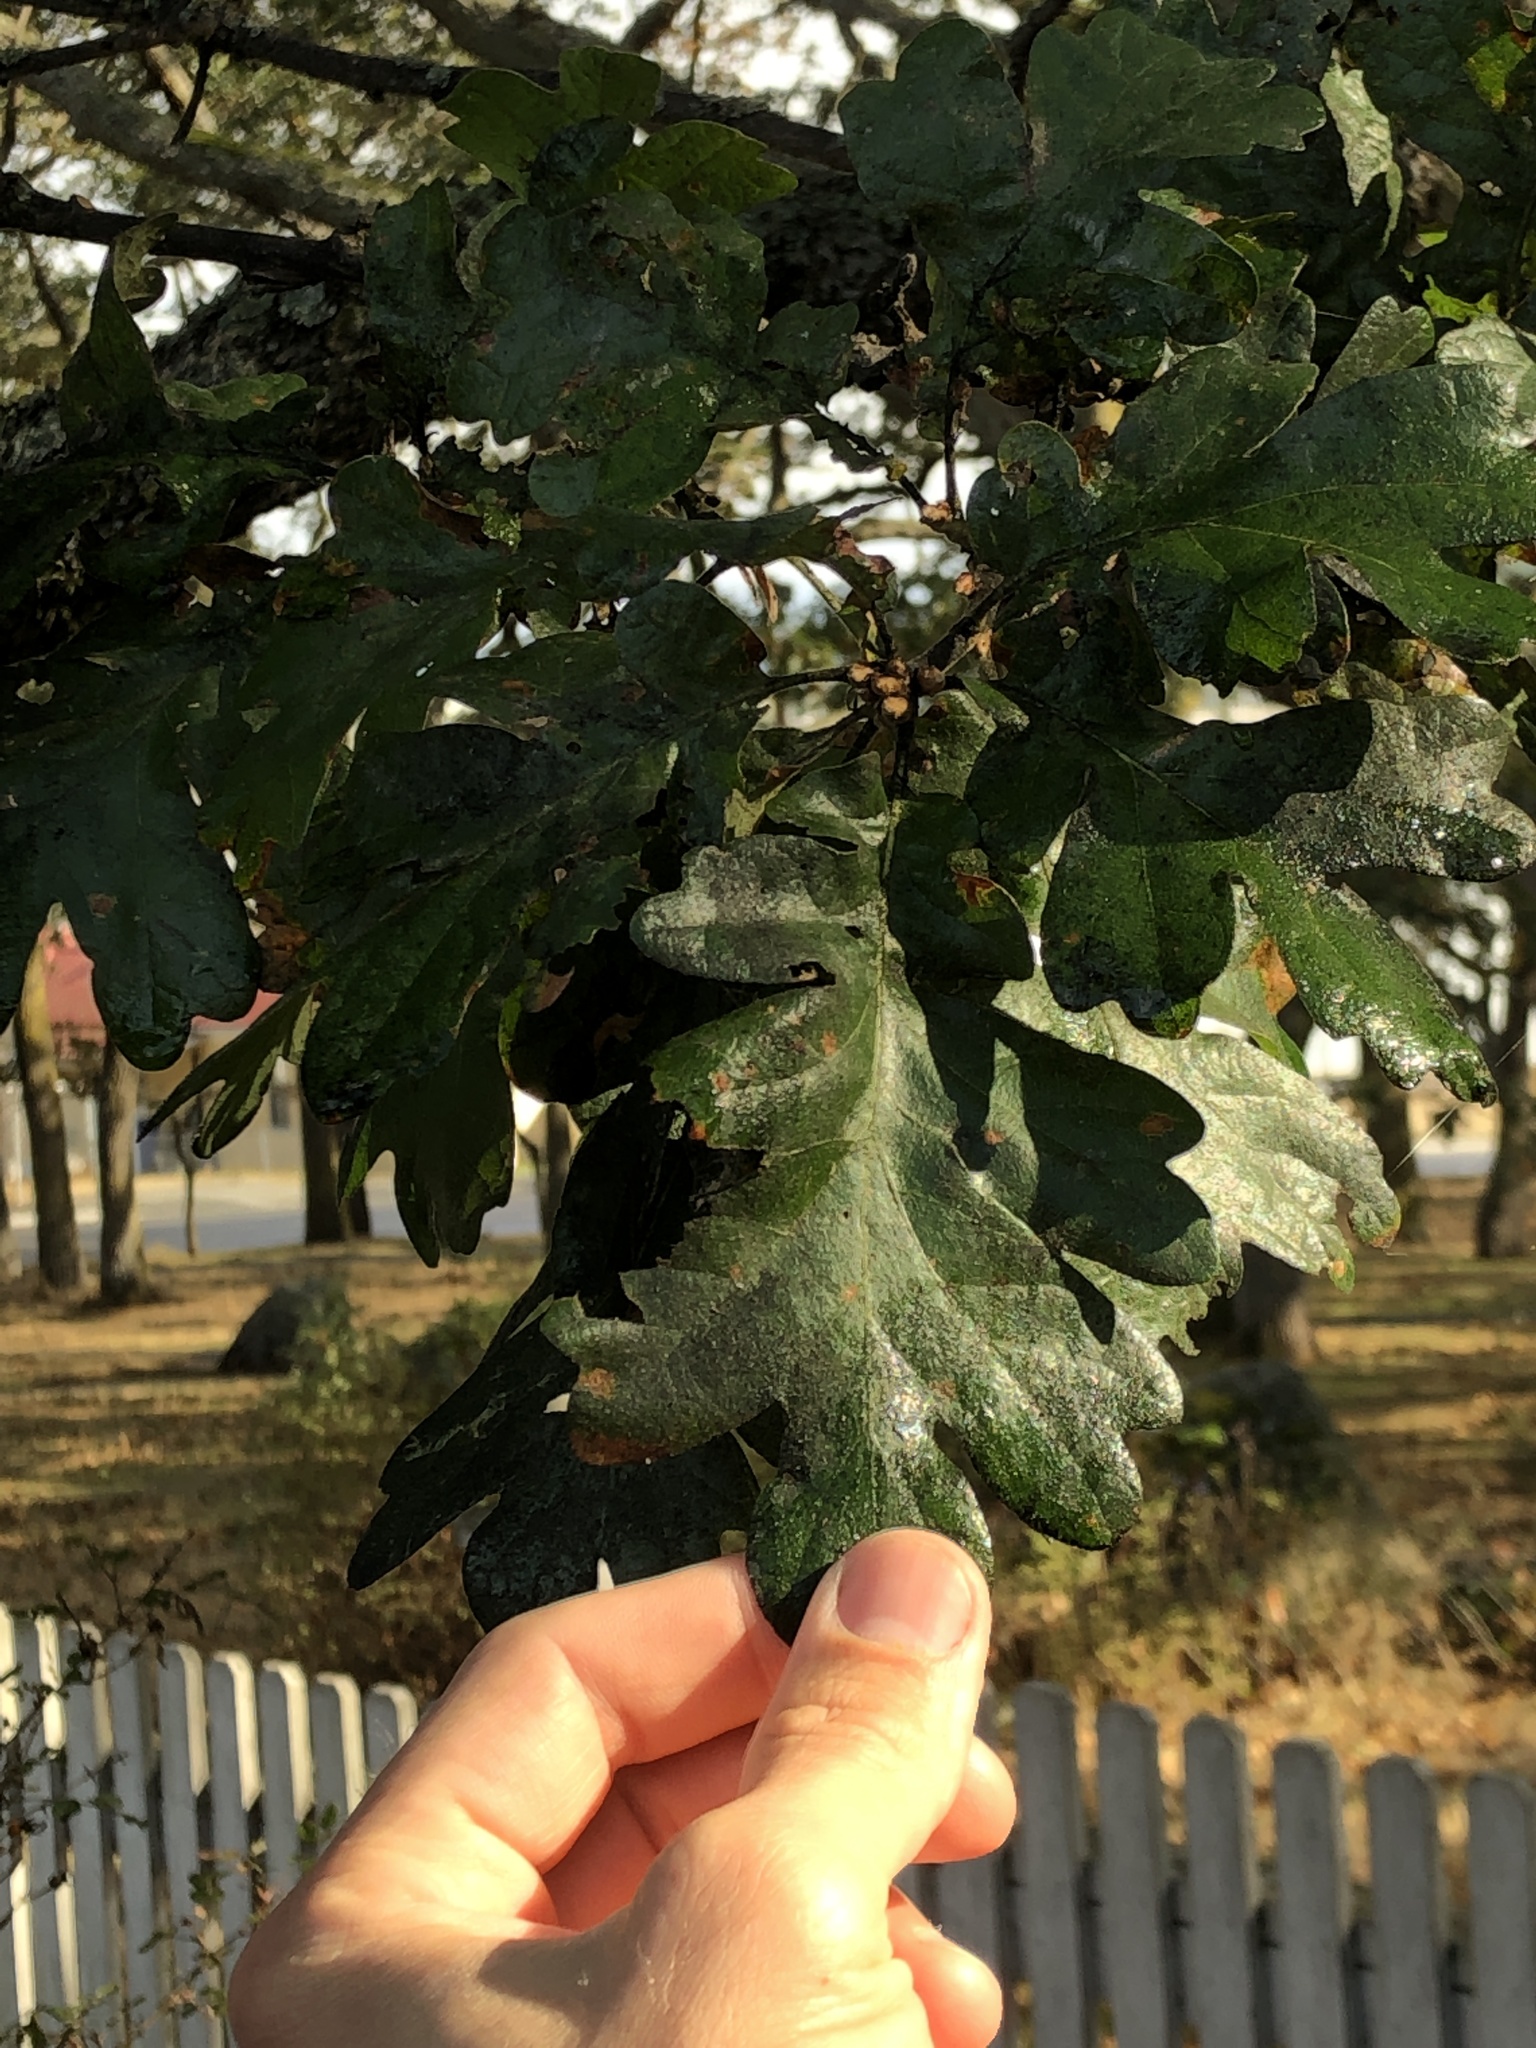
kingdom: Plantae
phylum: Tracheophyta
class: Magnoliopsida
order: Fagales
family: Fagaceae
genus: Quercus
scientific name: Quercus garryana
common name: Garry oak
